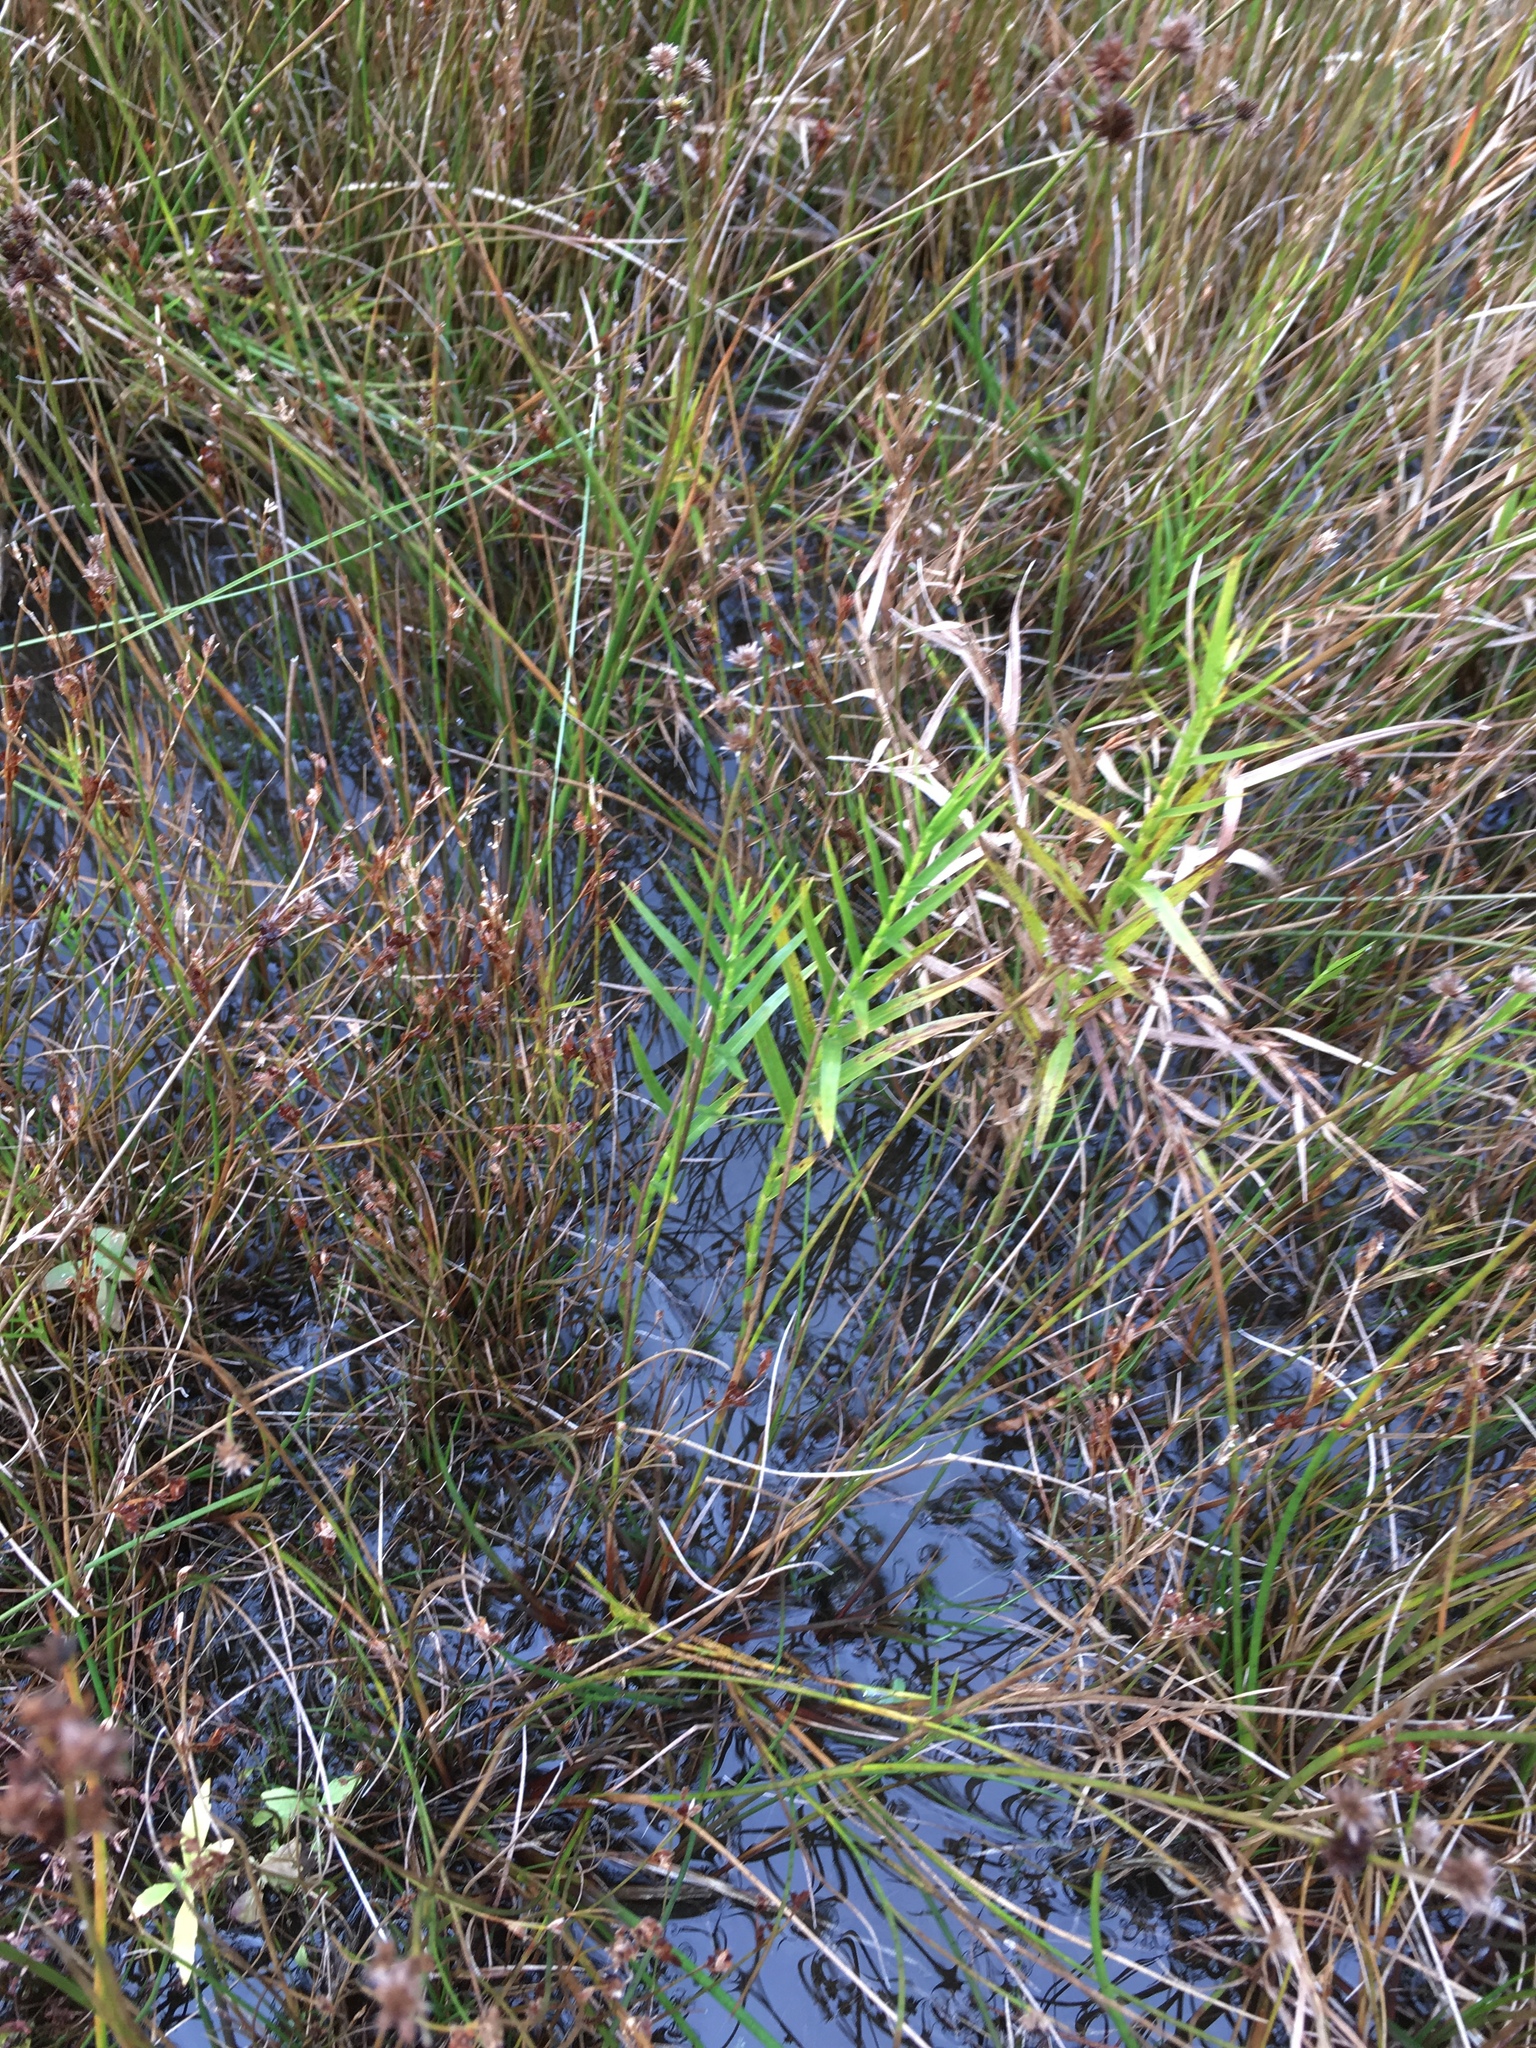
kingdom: Plantae
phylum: Tracheophyta
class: Liliopsida
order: Poales
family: Cyperaceae
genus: Dulichium
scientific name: Dulichium arundinaceum
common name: Three-way sedge
